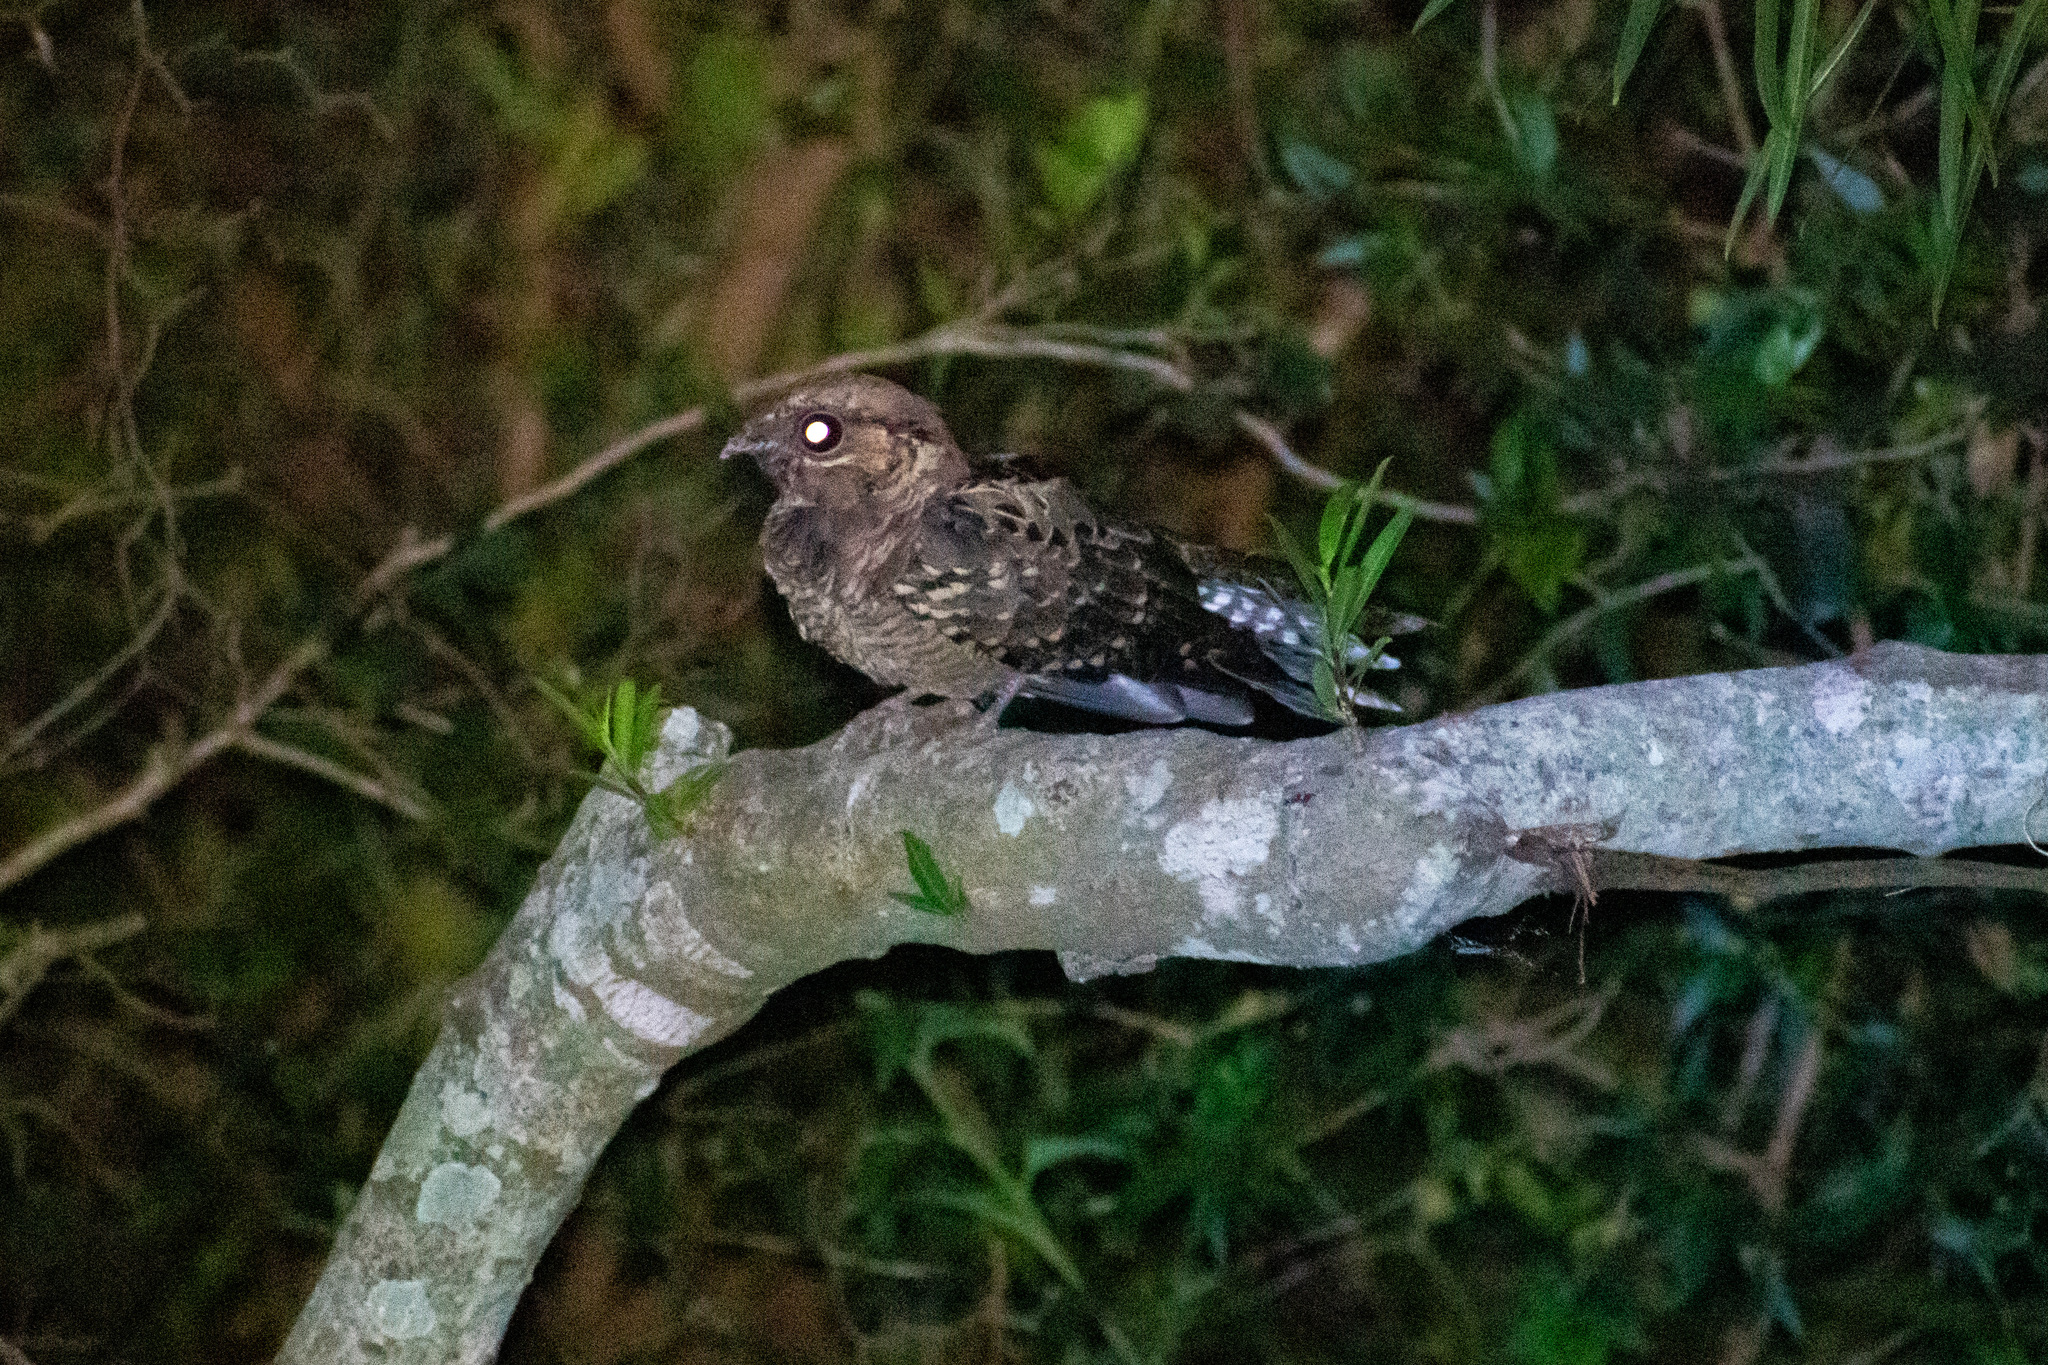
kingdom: Animalia
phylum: Chordata
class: Aves
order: Caprimulgiformes
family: Caprimulgidae
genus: Nyctidromus
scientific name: Nyctidromus albicollis
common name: Pauraque
